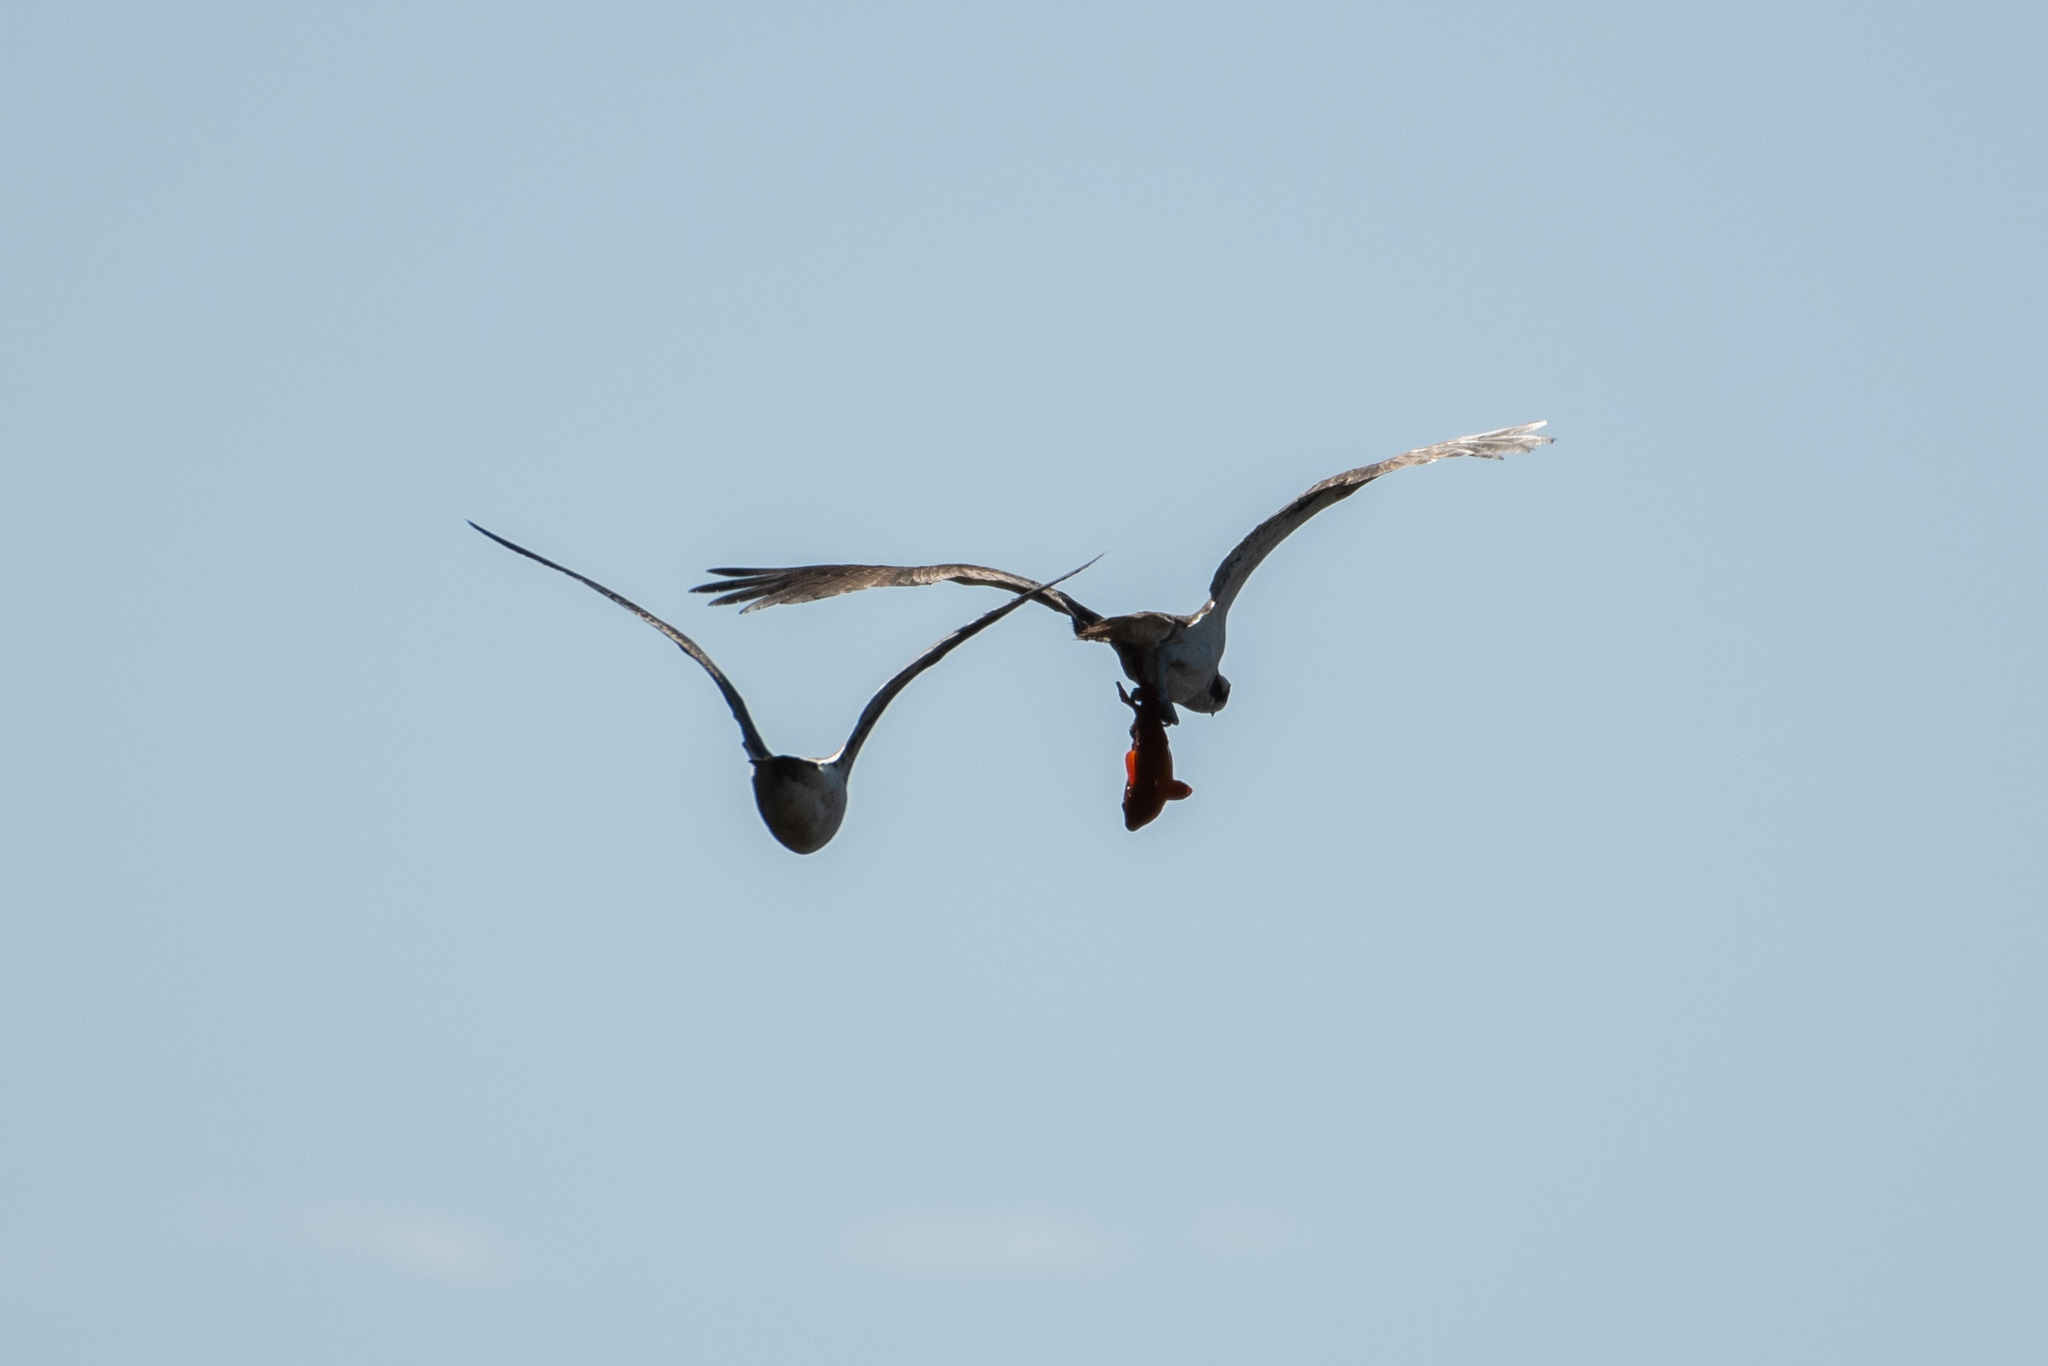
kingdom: Animalia
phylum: Chordata
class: Aves
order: Accipitriformes
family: Pandionidae
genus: Pandion
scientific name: Pandion haliaetus
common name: Osprey
